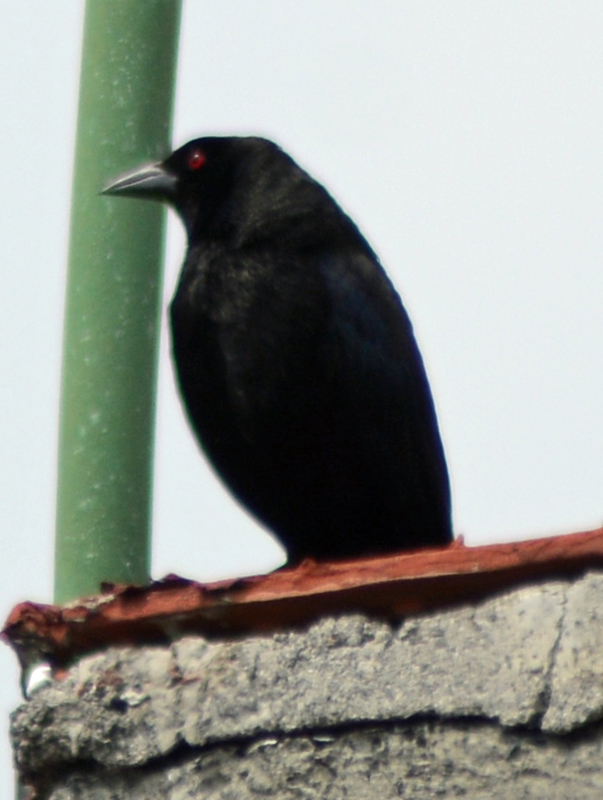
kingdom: Animalia
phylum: Chordata
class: Aves
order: Passeriformes
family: Icteridae
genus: Molothrus
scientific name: Molothrus aeneus
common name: Bronzed cowbird
